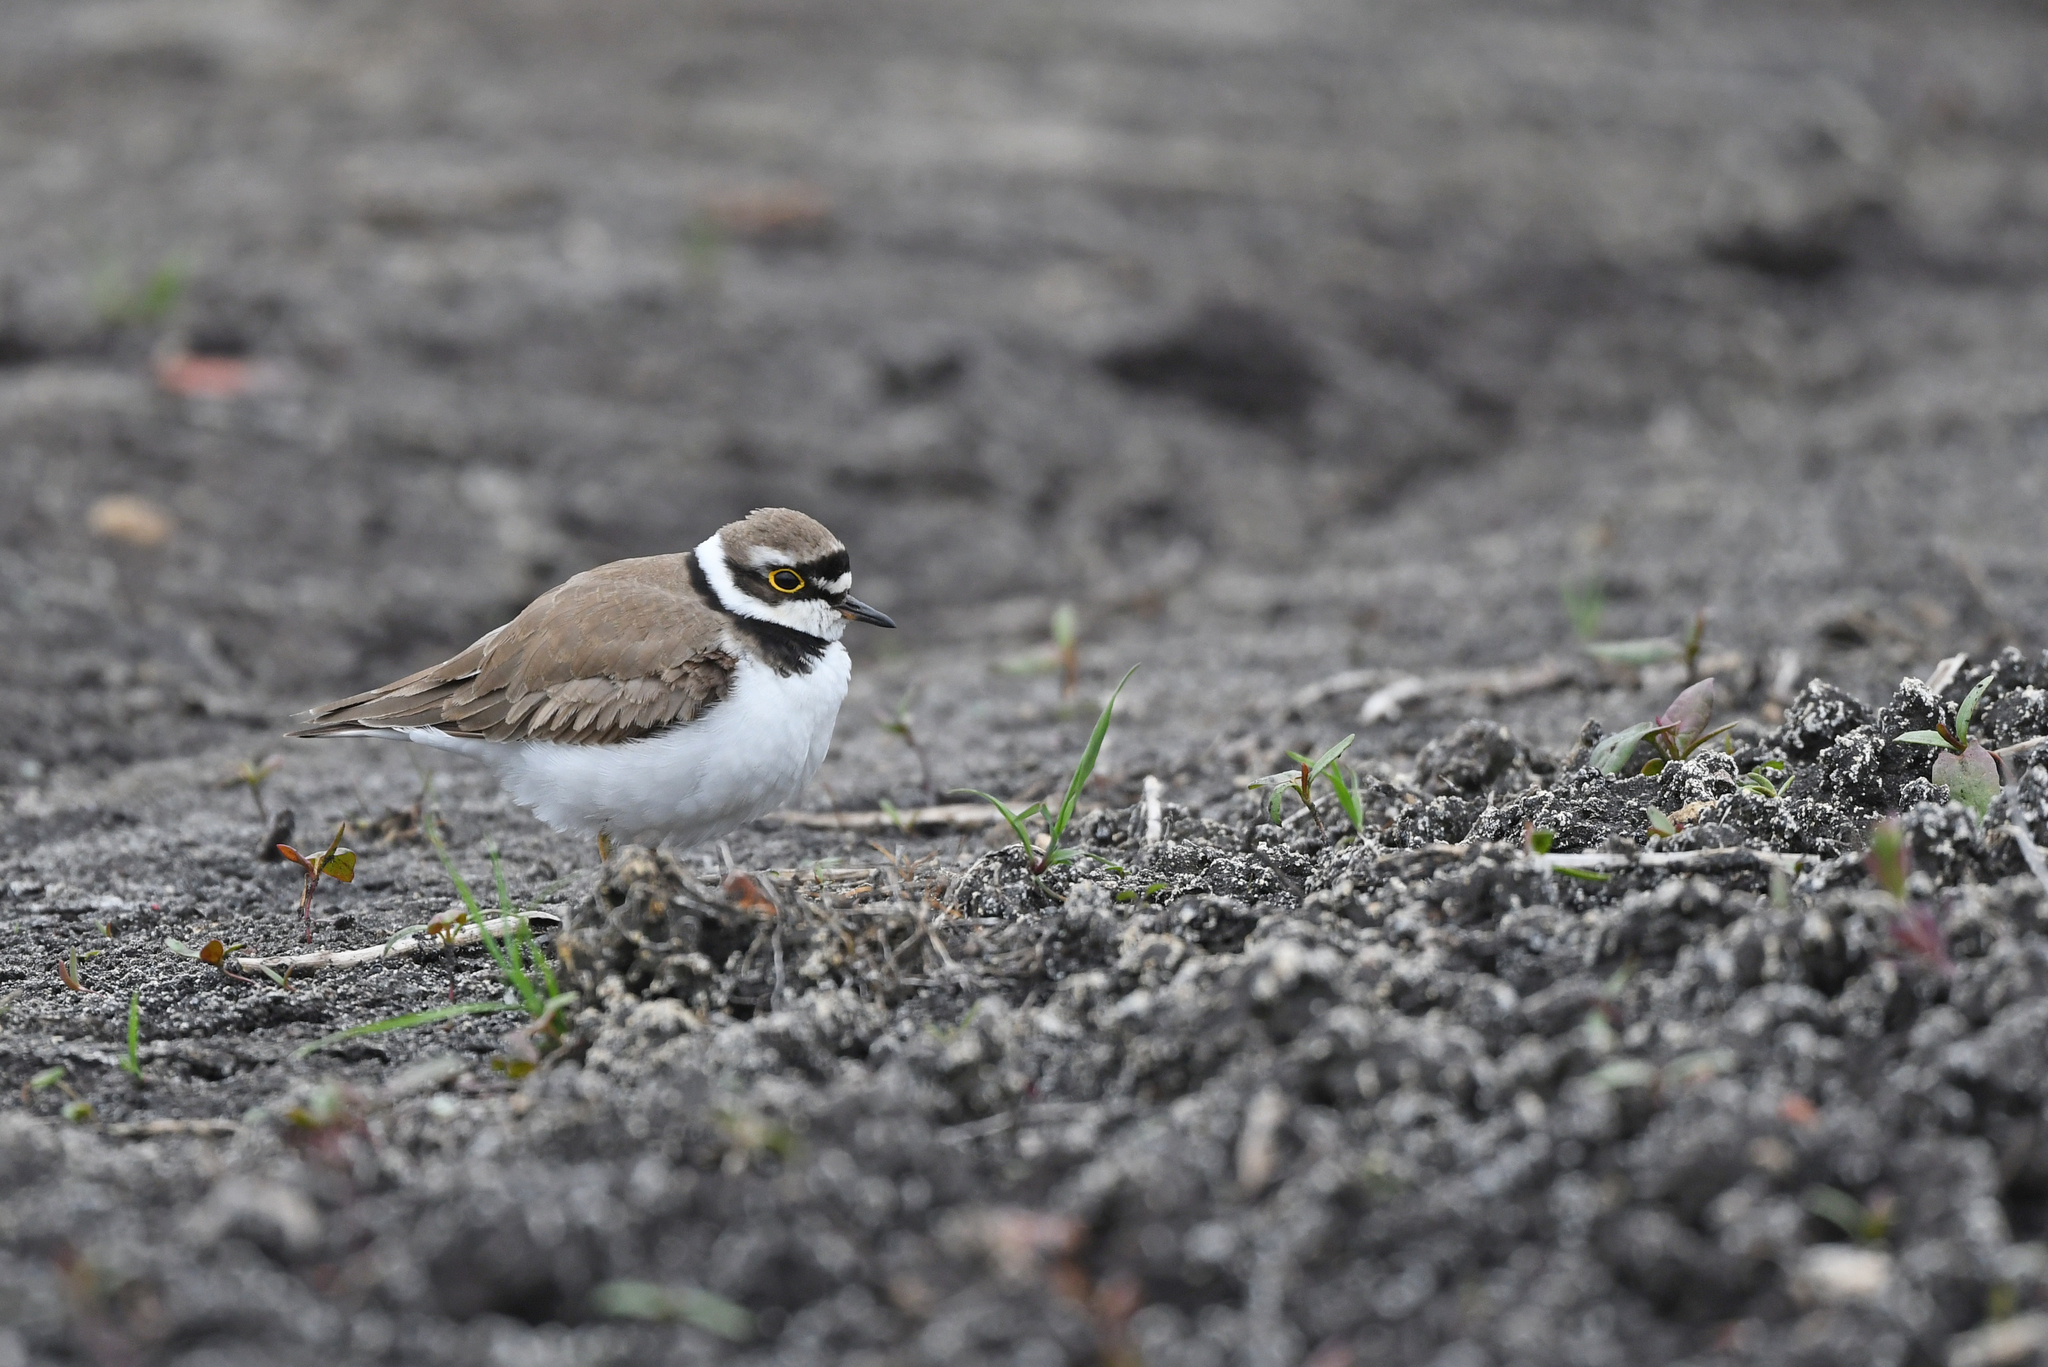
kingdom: Animalia
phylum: Chordata
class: Aves
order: Charadriiformes
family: Charadriidae
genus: Charadrius
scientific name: Charadrius dubius
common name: Little ringed plover
